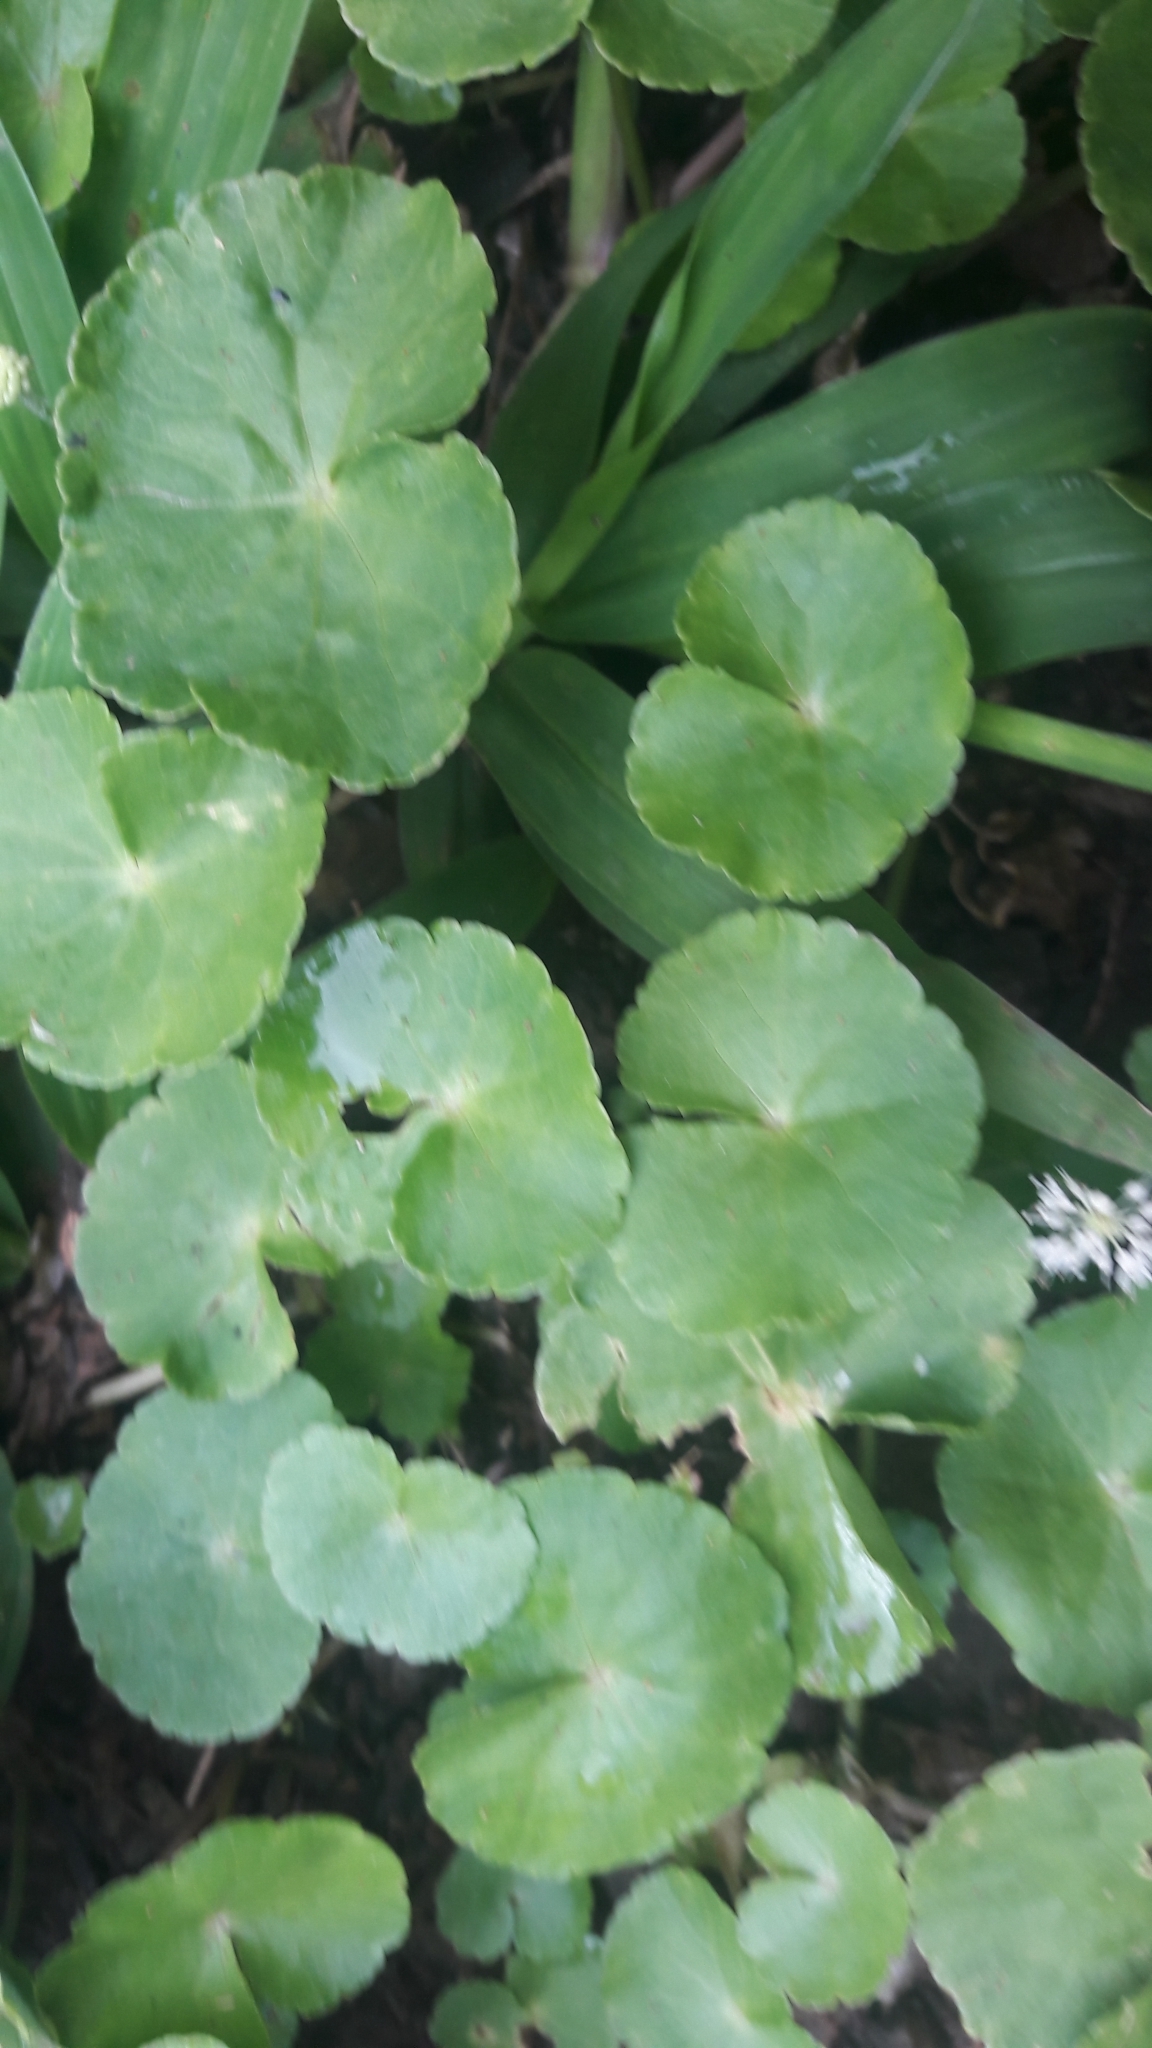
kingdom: Plantae
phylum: Tracheophyta
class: Magnoliopsida
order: Apiales
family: Araliaceae
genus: Hydrocotyle
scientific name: Hydrocotyle leucocephala
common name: Brazilian pennywort
